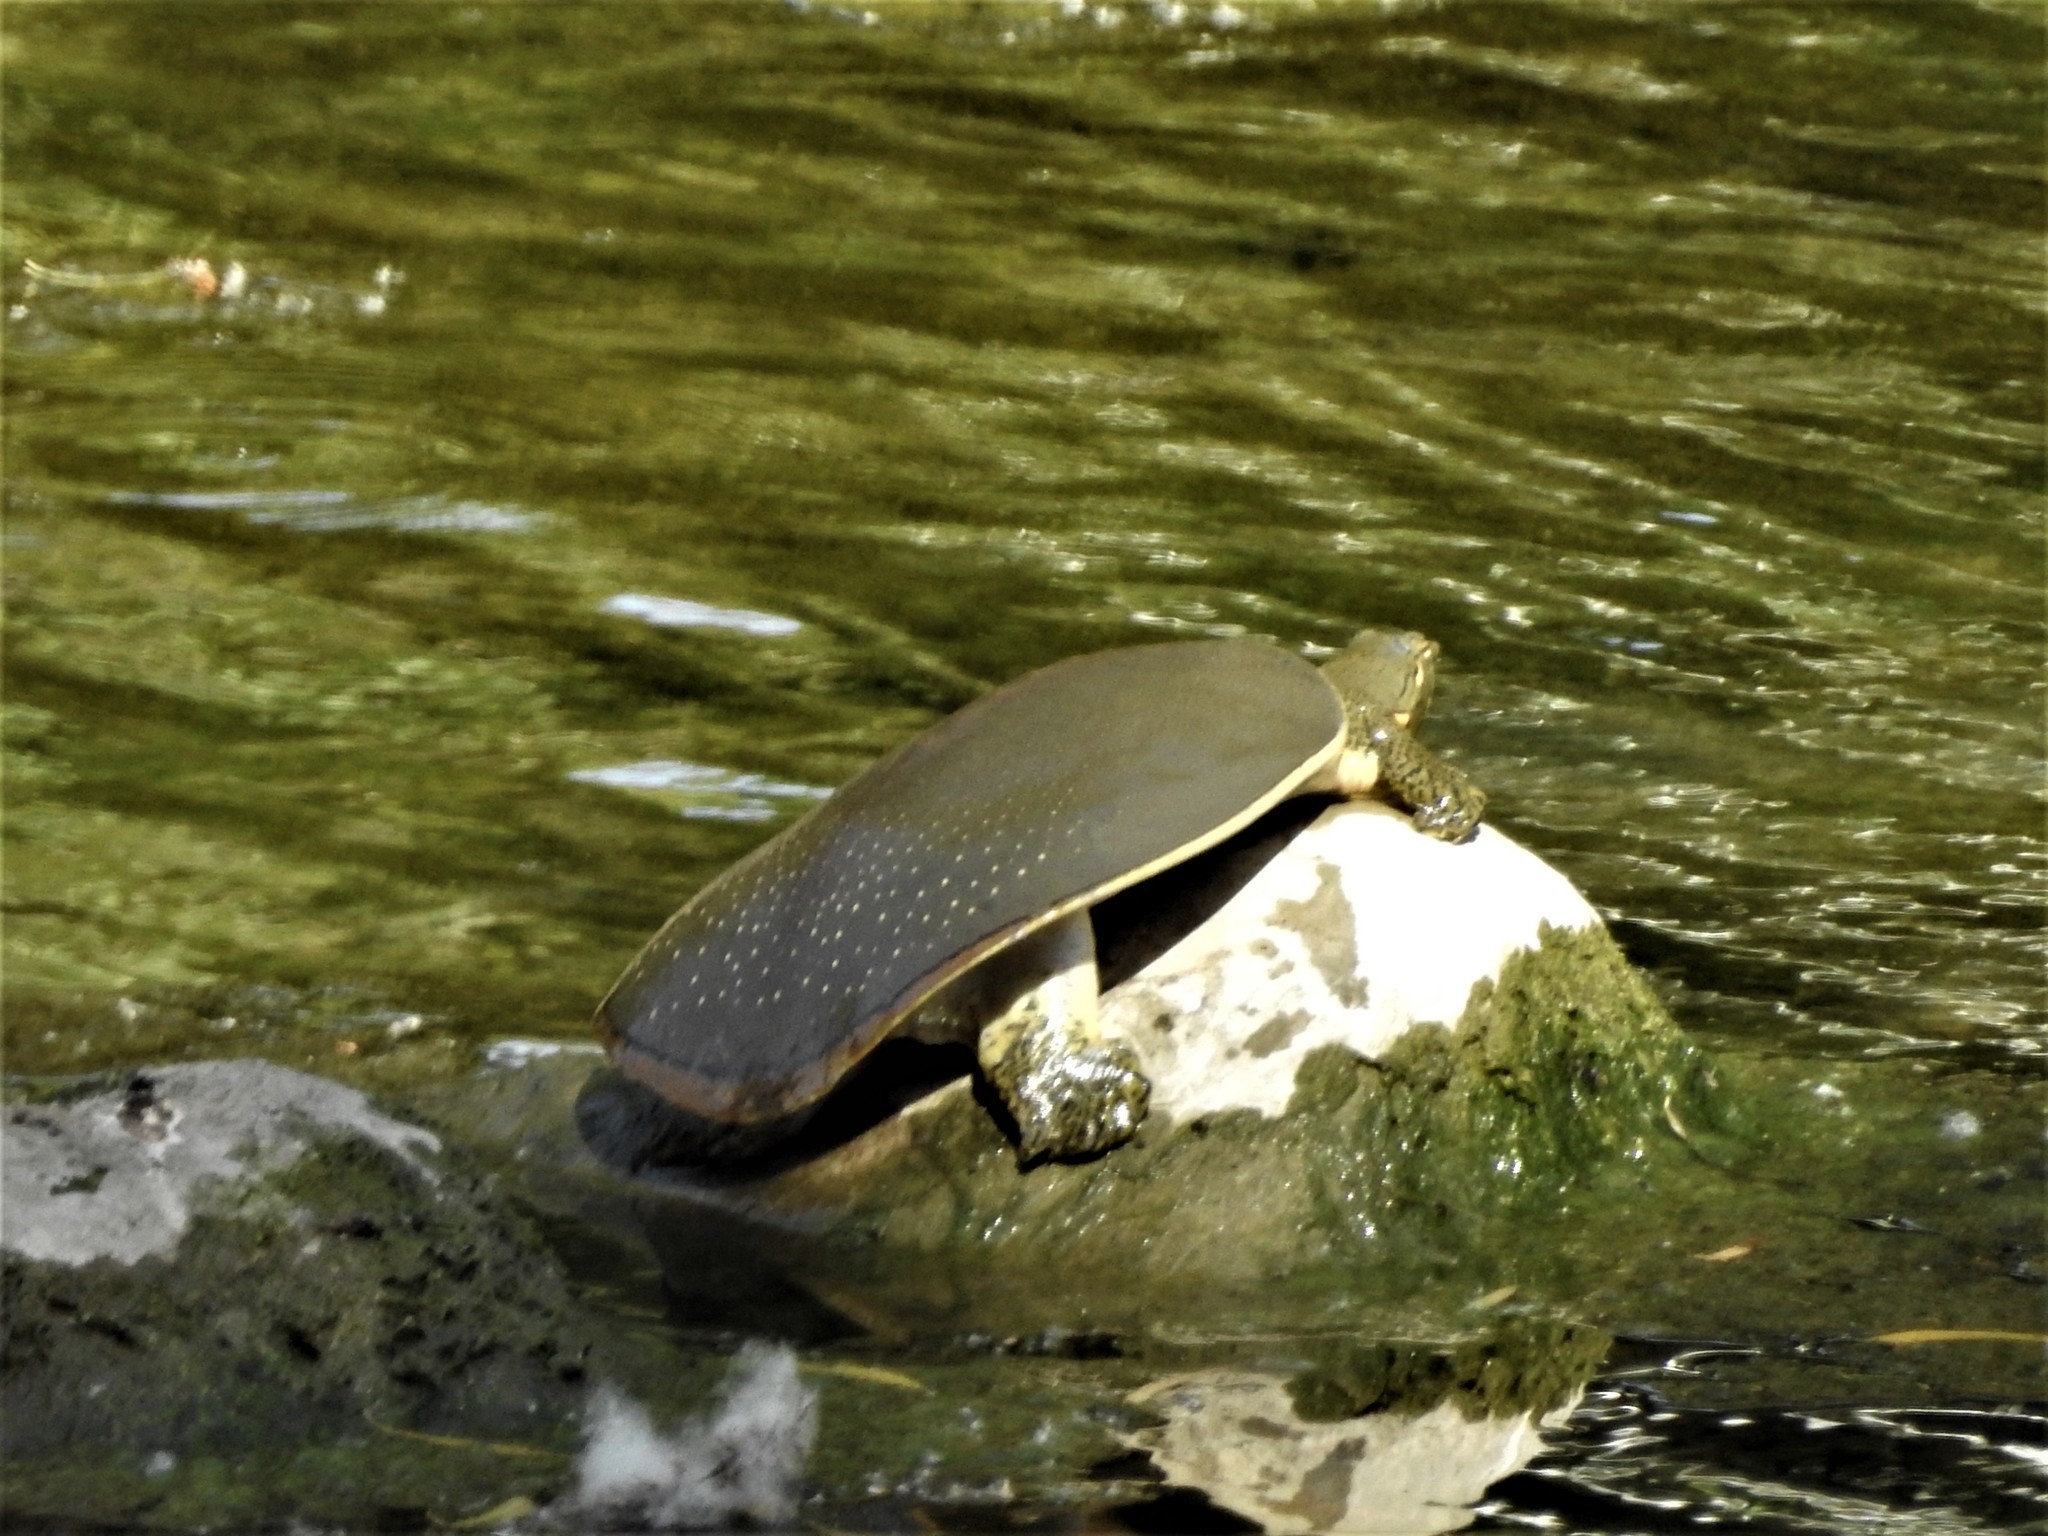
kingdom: Animalia
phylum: Chordata
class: Testudines
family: Trionychidae
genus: Apalone
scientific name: Apalone spinifera
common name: Spiny softshell turtle
